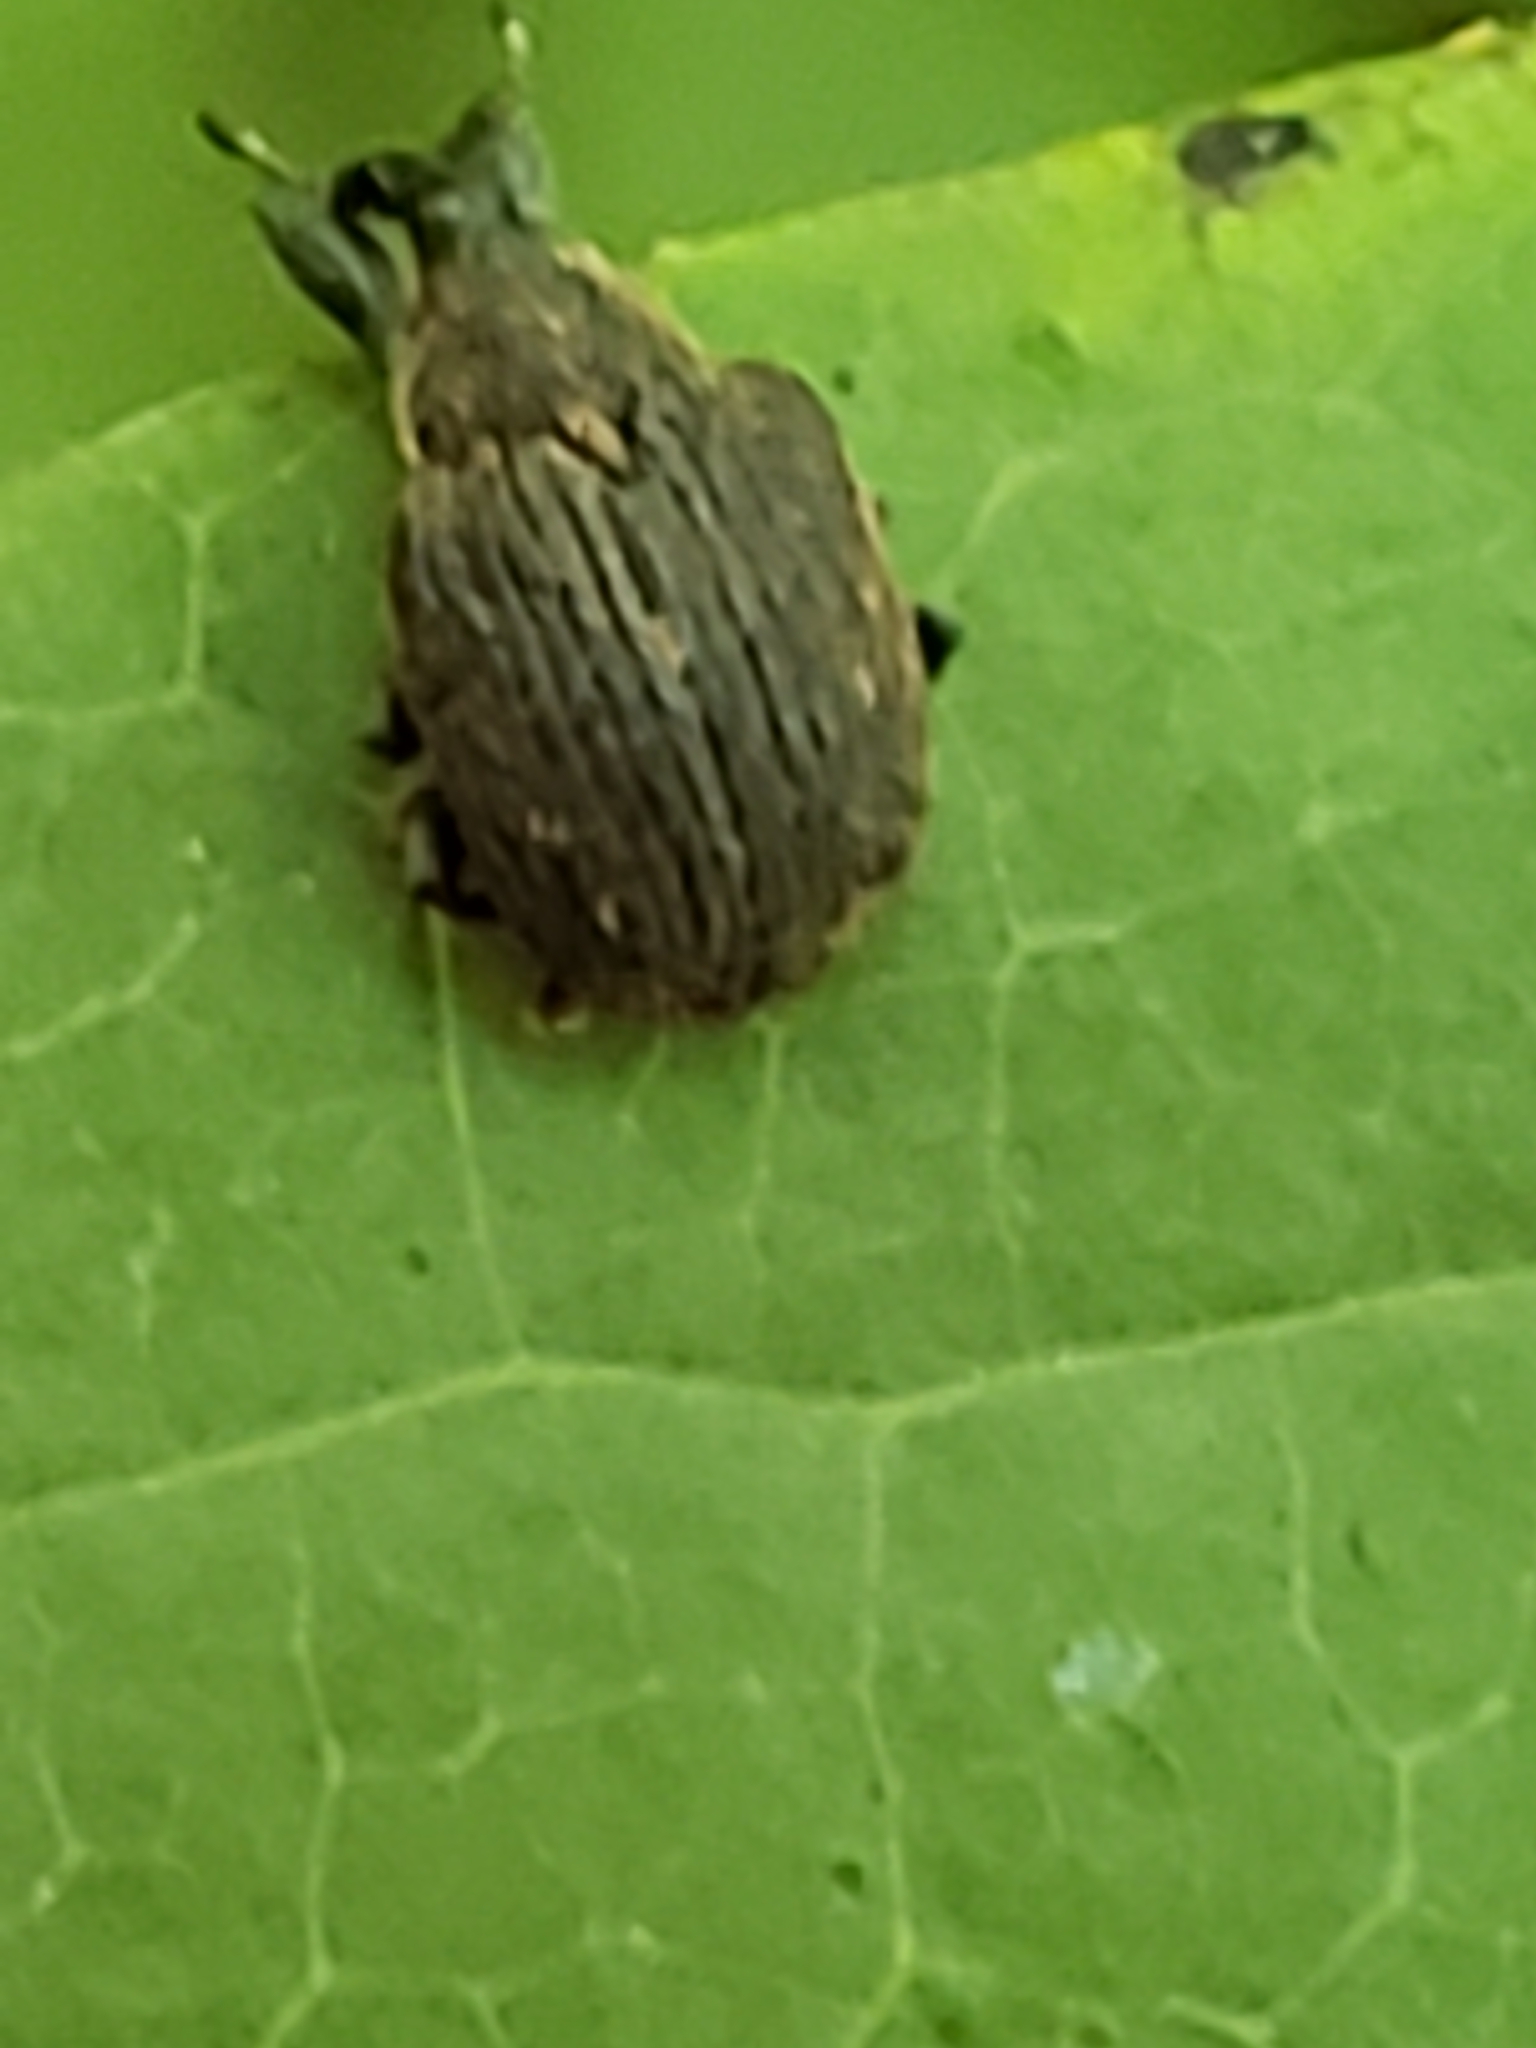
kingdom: Animalia
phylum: Arthropoda
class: Insecta
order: Coleoptera
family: Curculionidae
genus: Odontopus
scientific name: Odontopus calceatus
